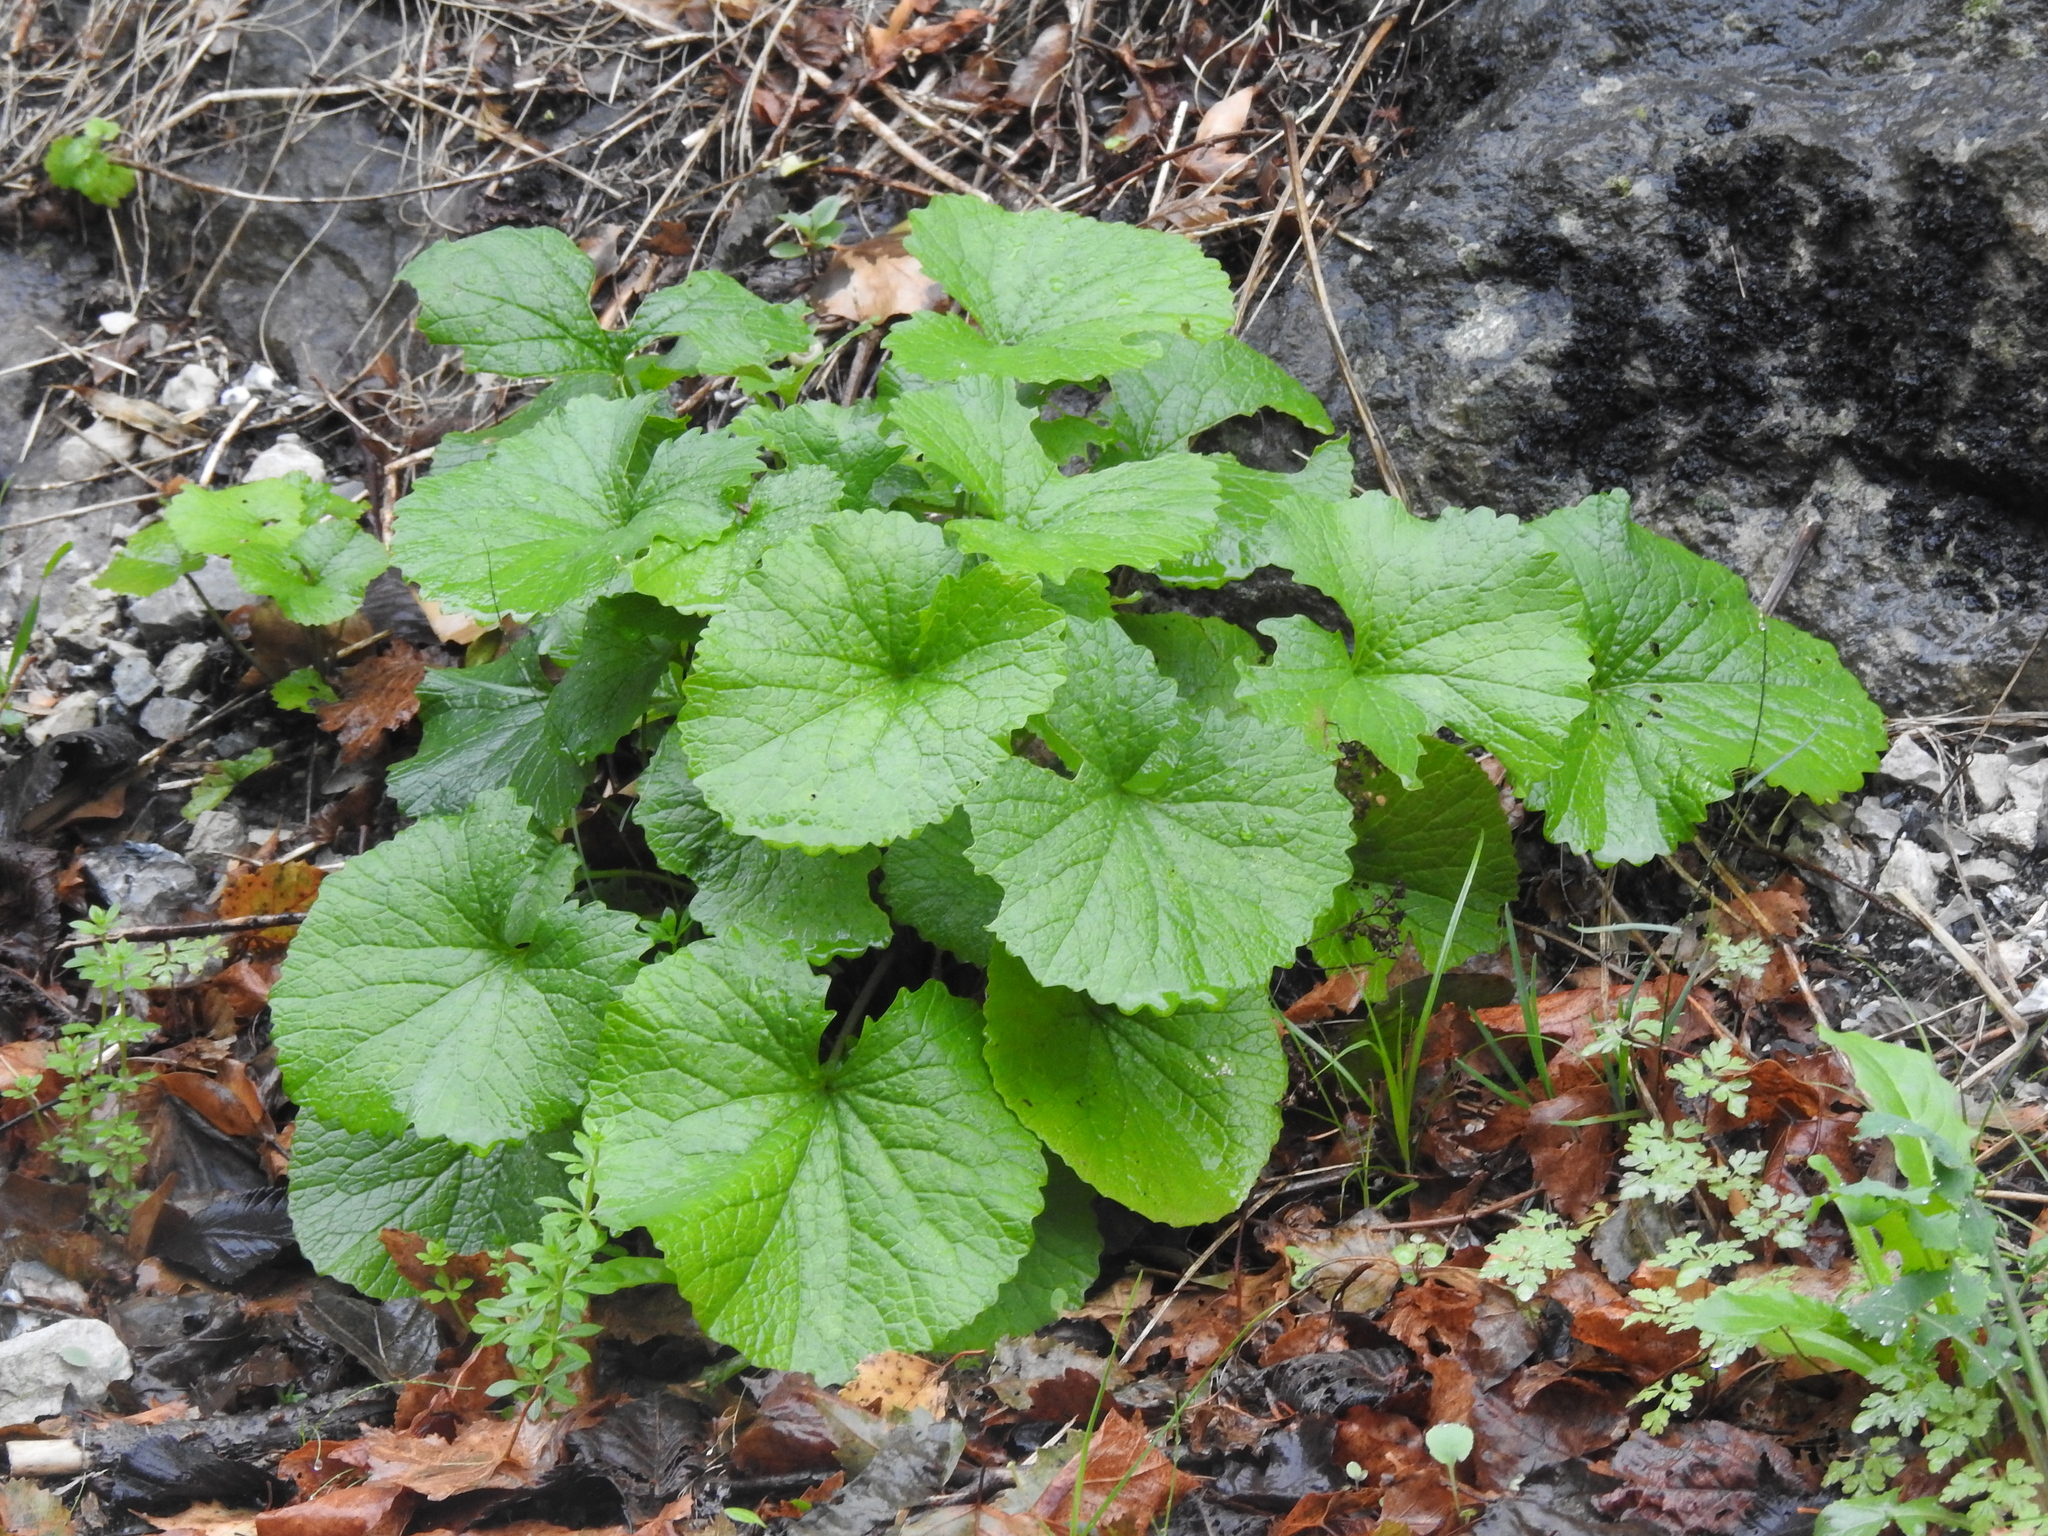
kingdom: Plantae
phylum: Tracheophyta
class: Magnoliopsida
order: Brassicales
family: Brassicaceae
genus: Alliaria
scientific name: Alliaria petiolata
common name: Garlic mustard
